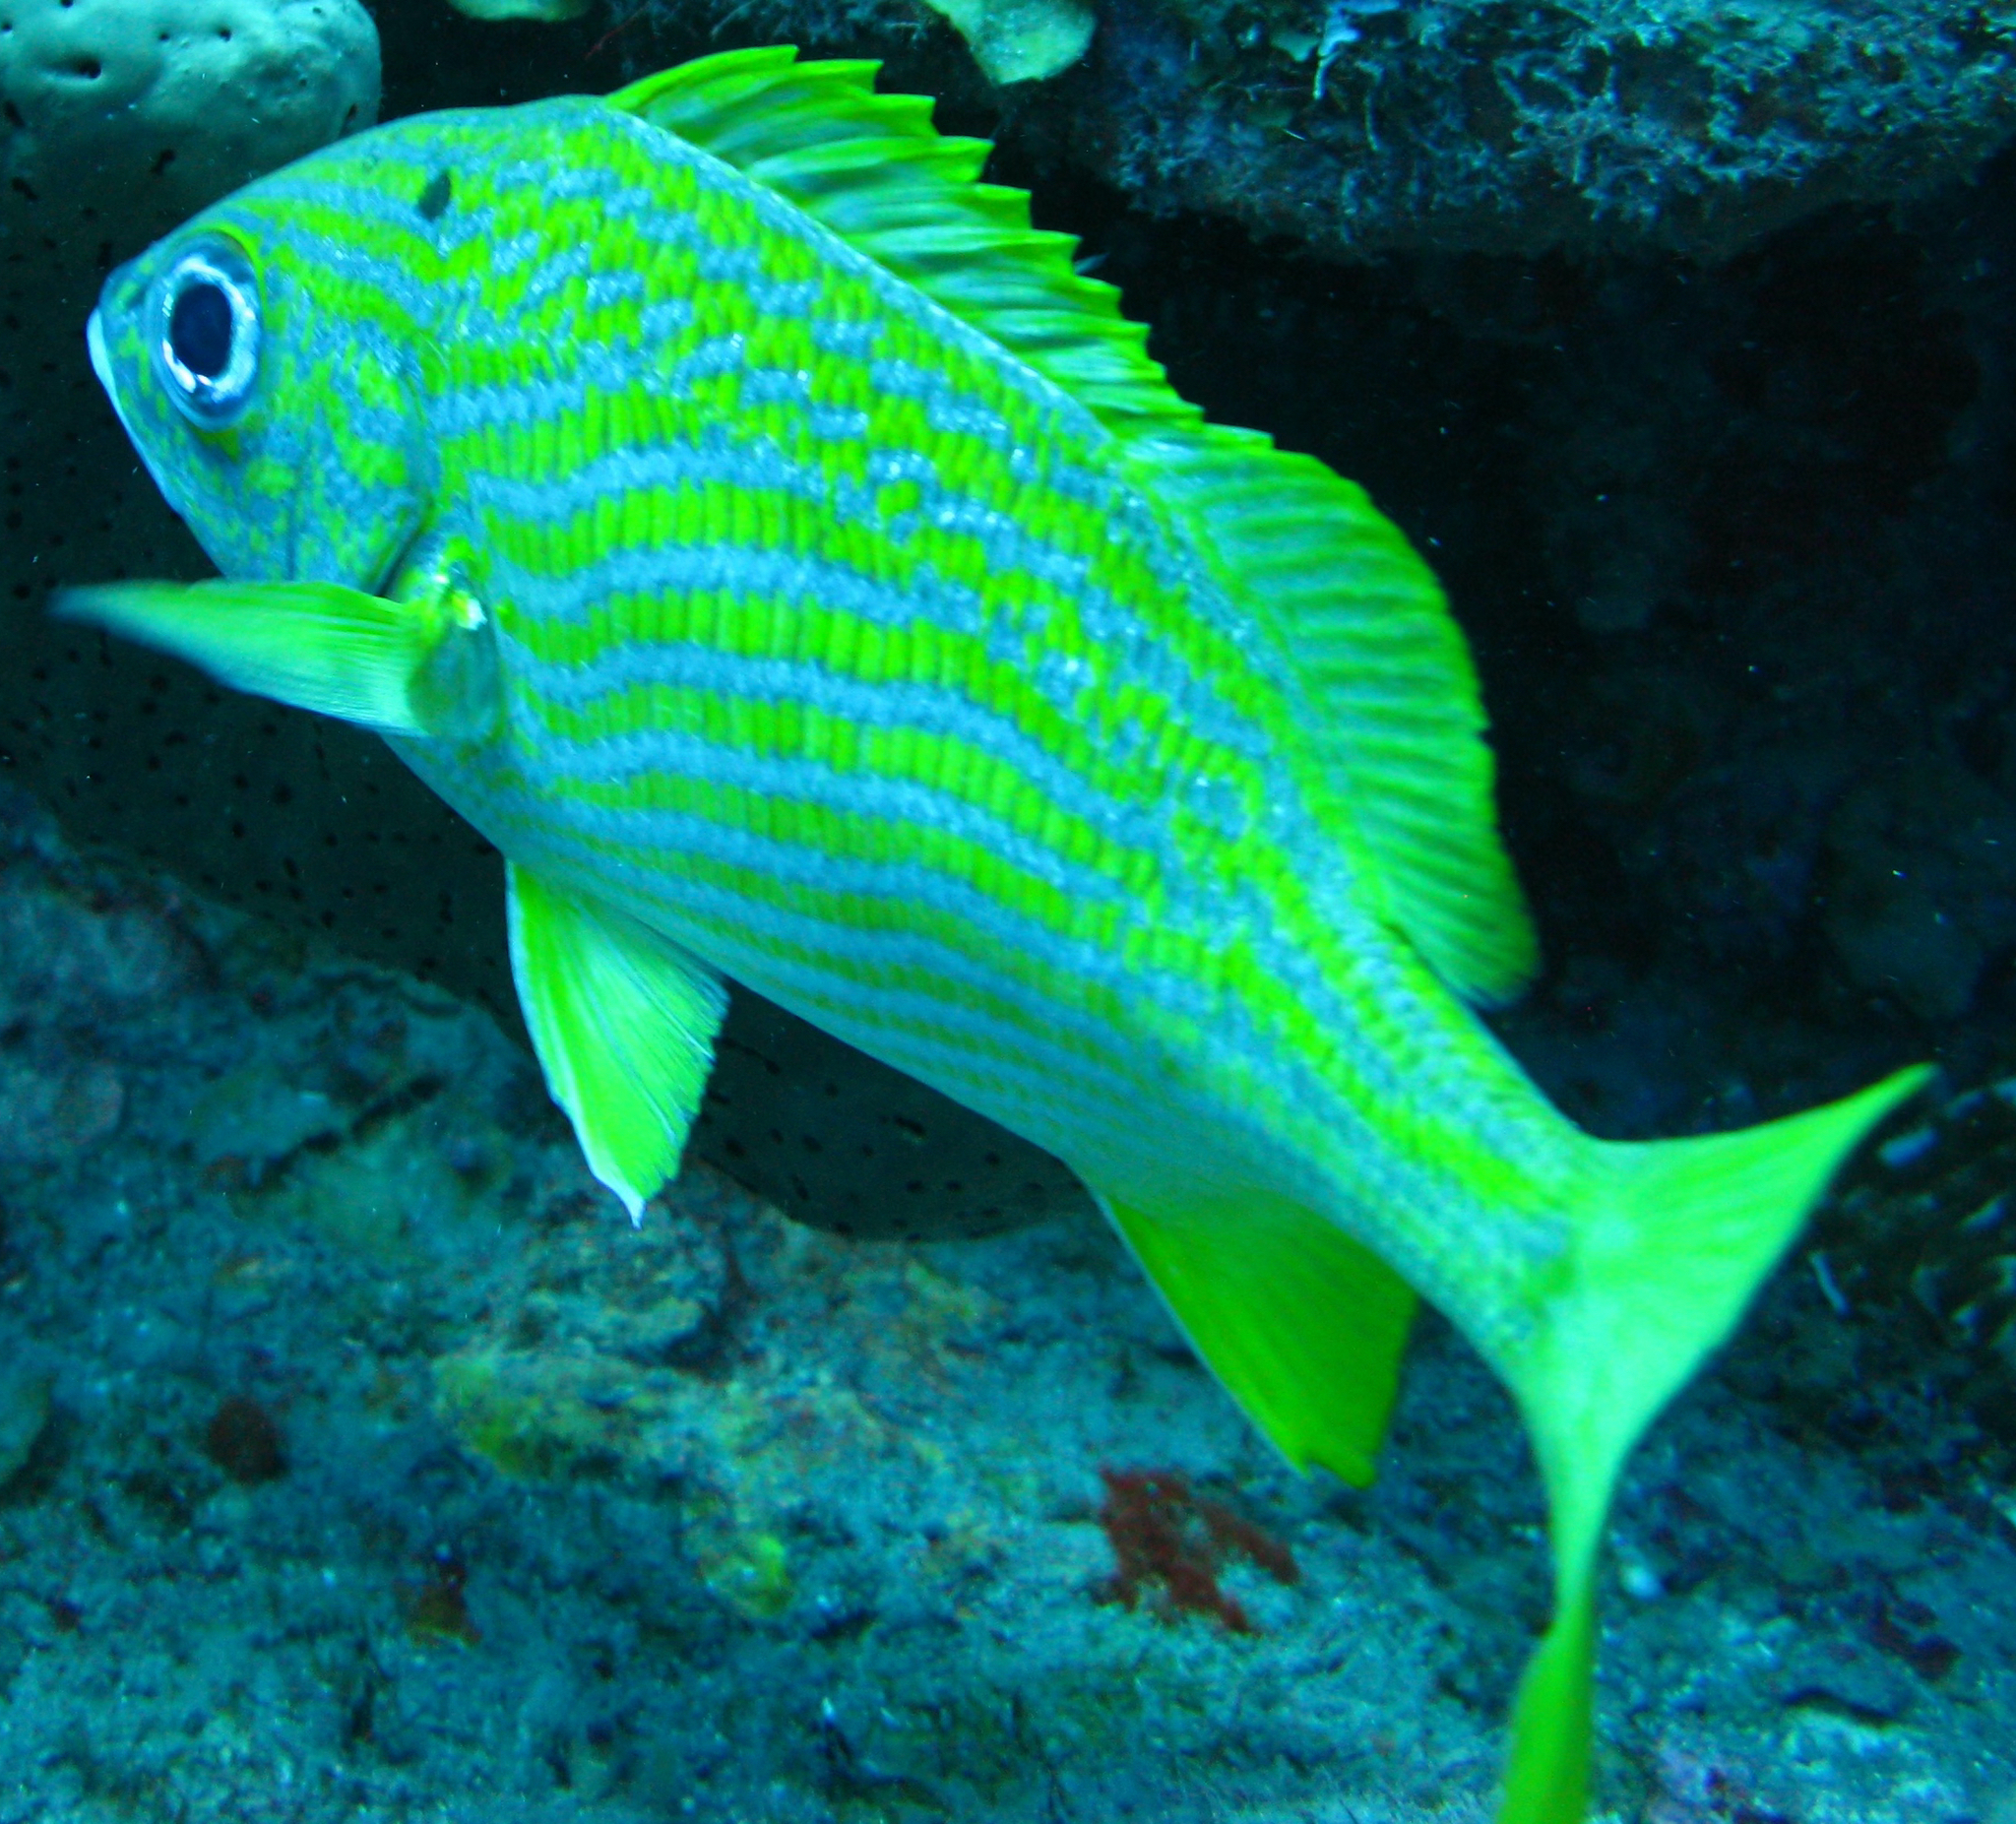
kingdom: Animalia
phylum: Chordata
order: Perciformes
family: Haemulidae
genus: Haemulon
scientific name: Haemulon flavolineatum
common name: French grunt
